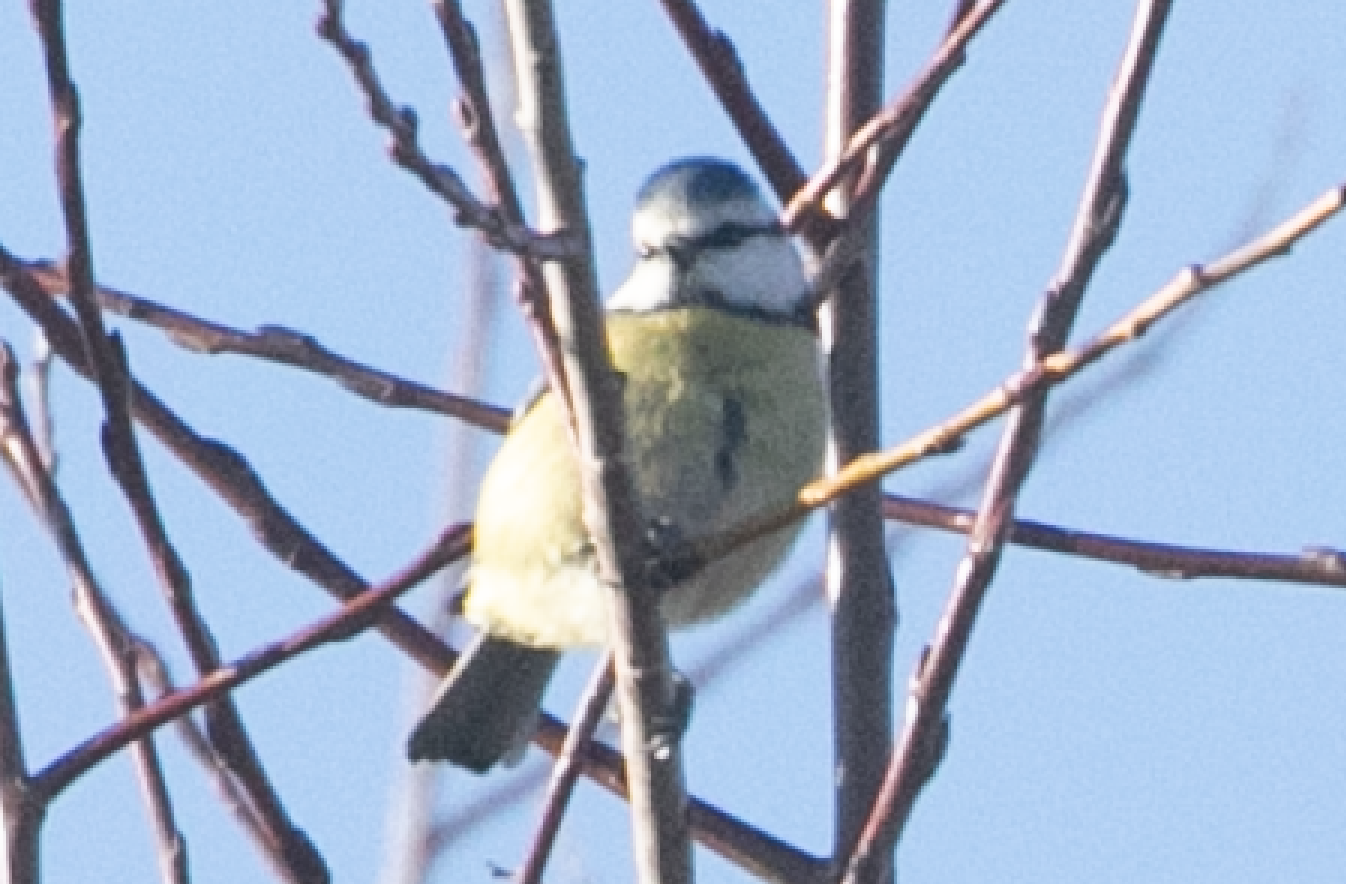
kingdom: Animalia
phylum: Chordata
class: Aves
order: Passeriformes
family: Paridae
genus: Cyanistes
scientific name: Cyanistes caeruleus
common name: Eurasian blue tit
